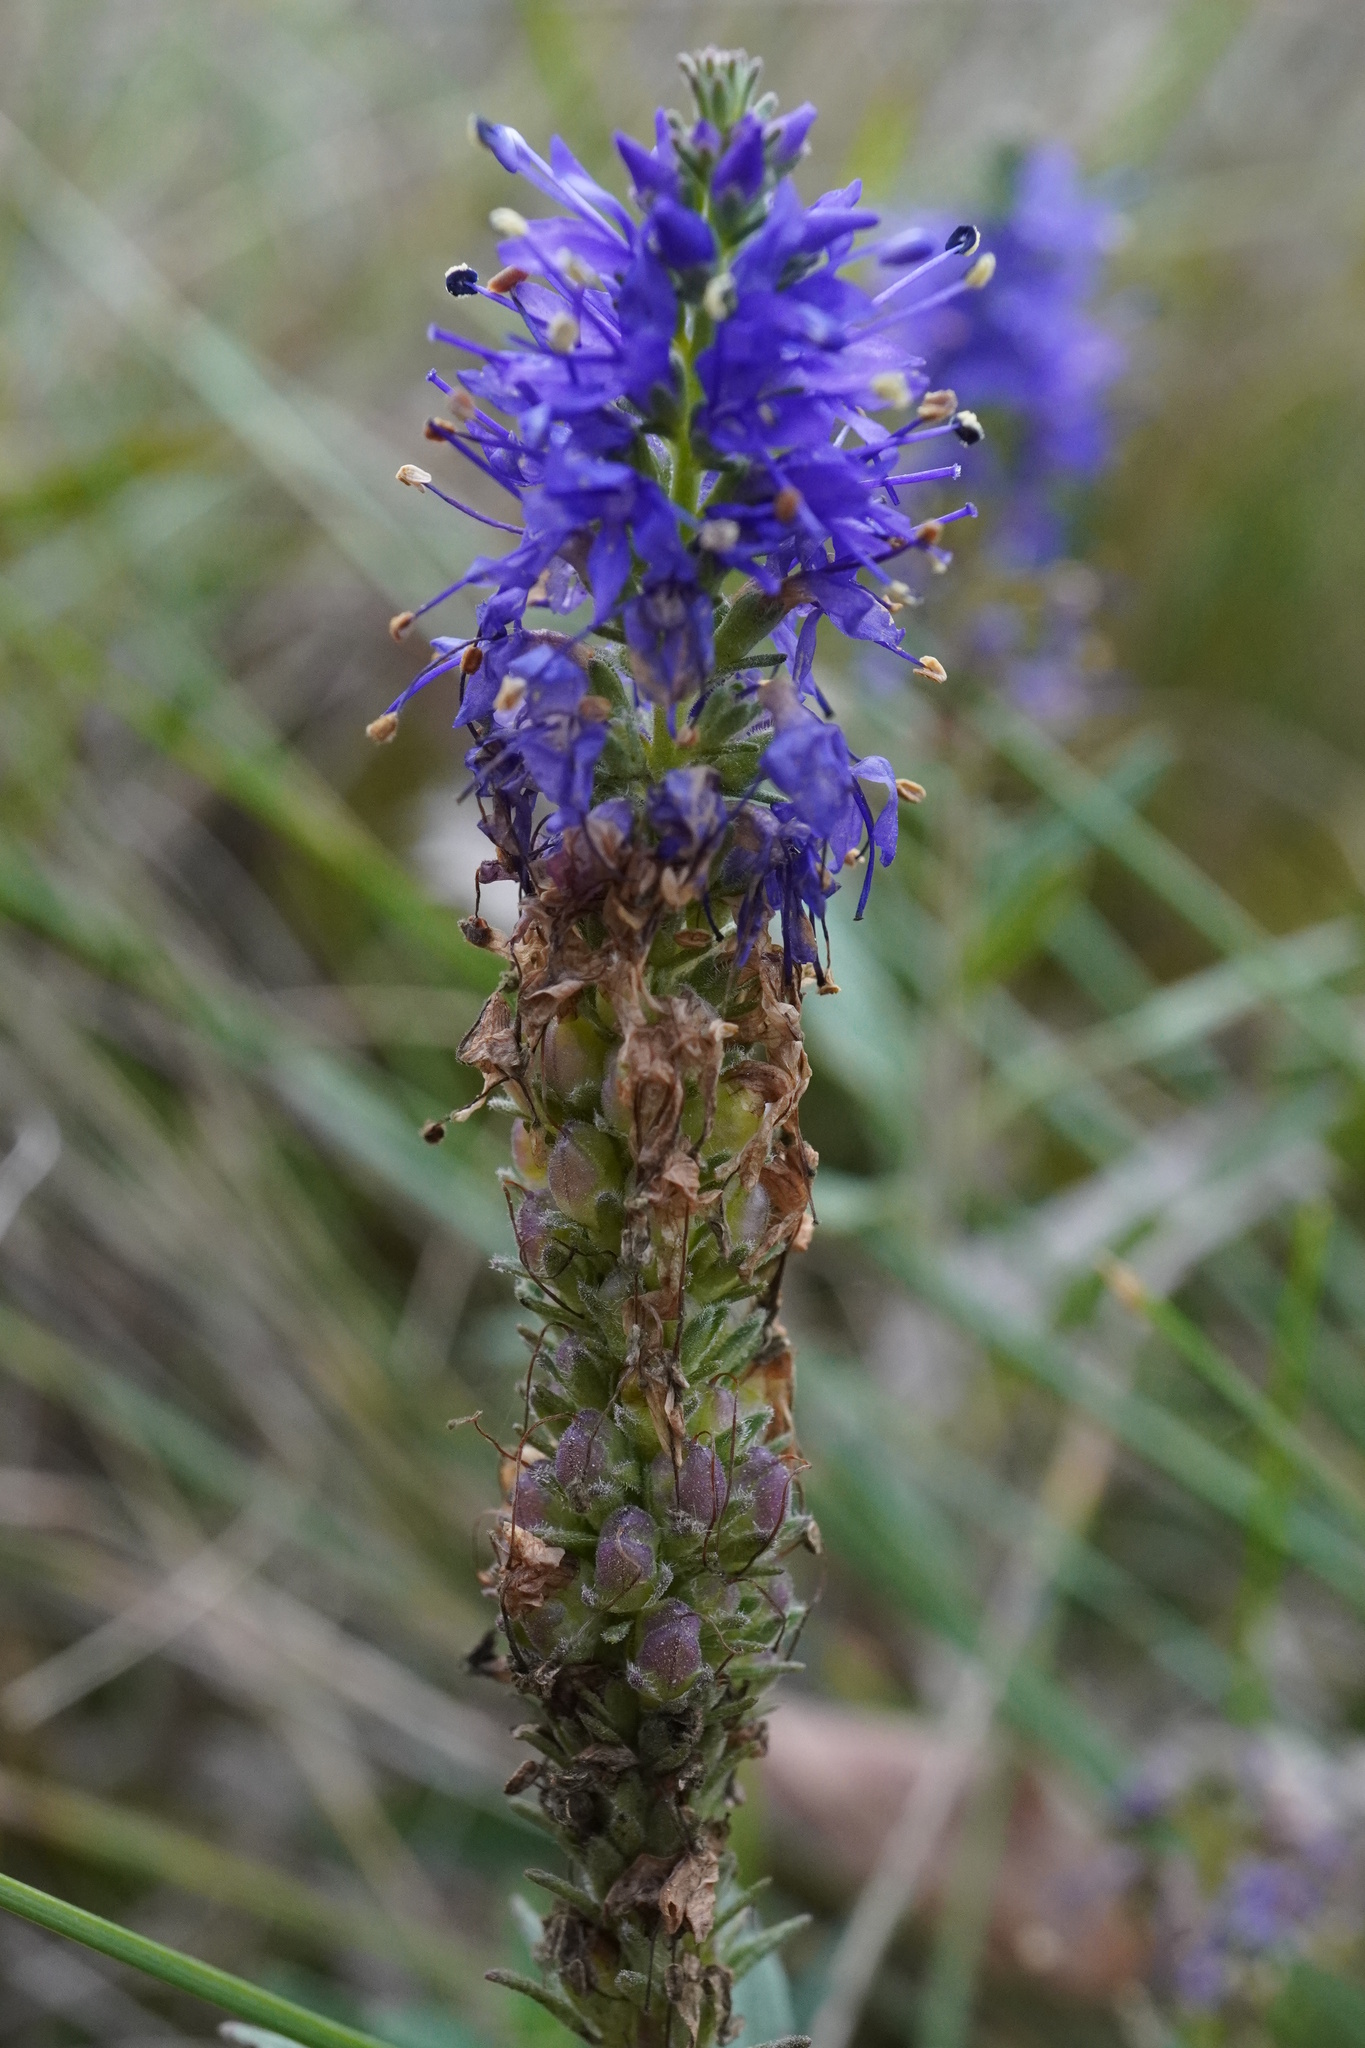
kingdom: Plantae
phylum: Tracheophyta
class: Magnoliopsida
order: Lamiales
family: Plantaginaceae
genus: Veronica
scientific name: Veronica spicata
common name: Spiked speedwell
